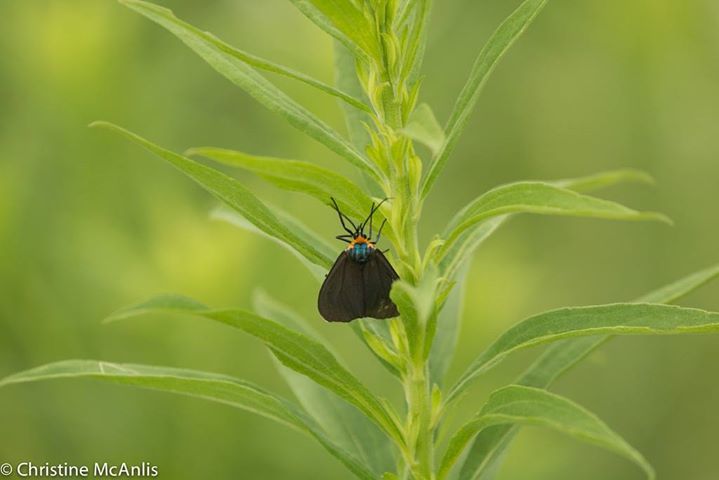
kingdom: Animalia
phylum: Arthropoda
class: Insecta
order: Lepidoptera
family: Erebidae
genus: Ctenucha
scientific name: Ctenucha virginica
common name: Virginia ctenucha moth
